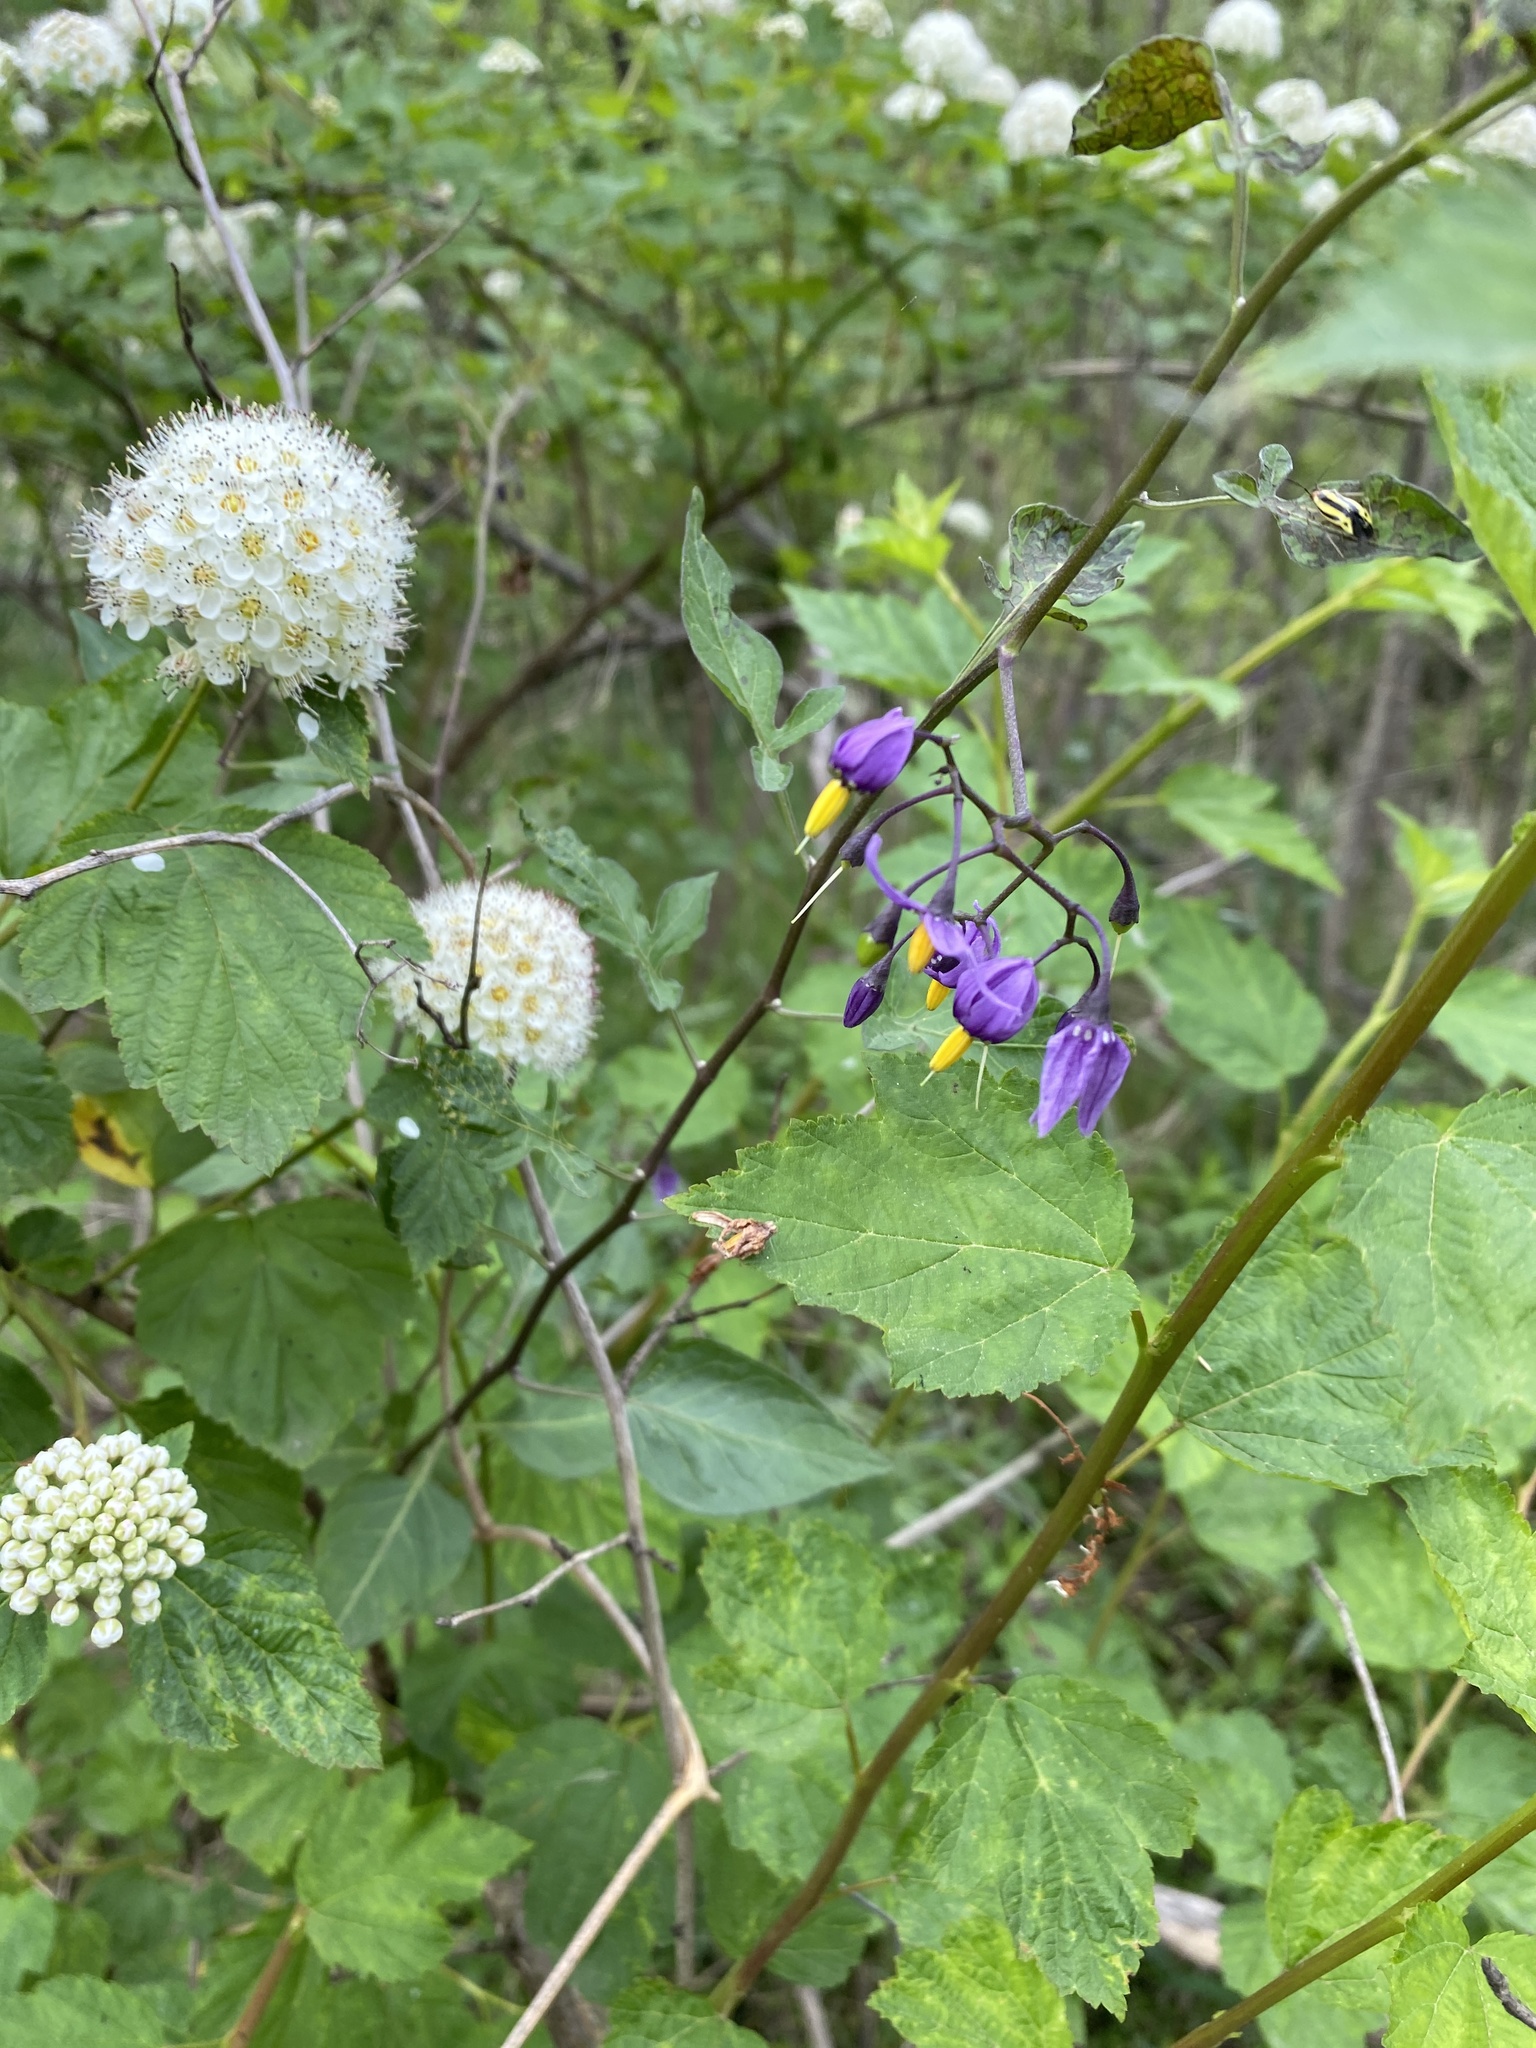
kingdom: Plantae
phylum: Tracheophyta
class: Magnoliopsida
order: Solanales
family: Solanaceae
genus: Solanum
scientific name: Solanum dulcamara
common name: Climbing nightshade
